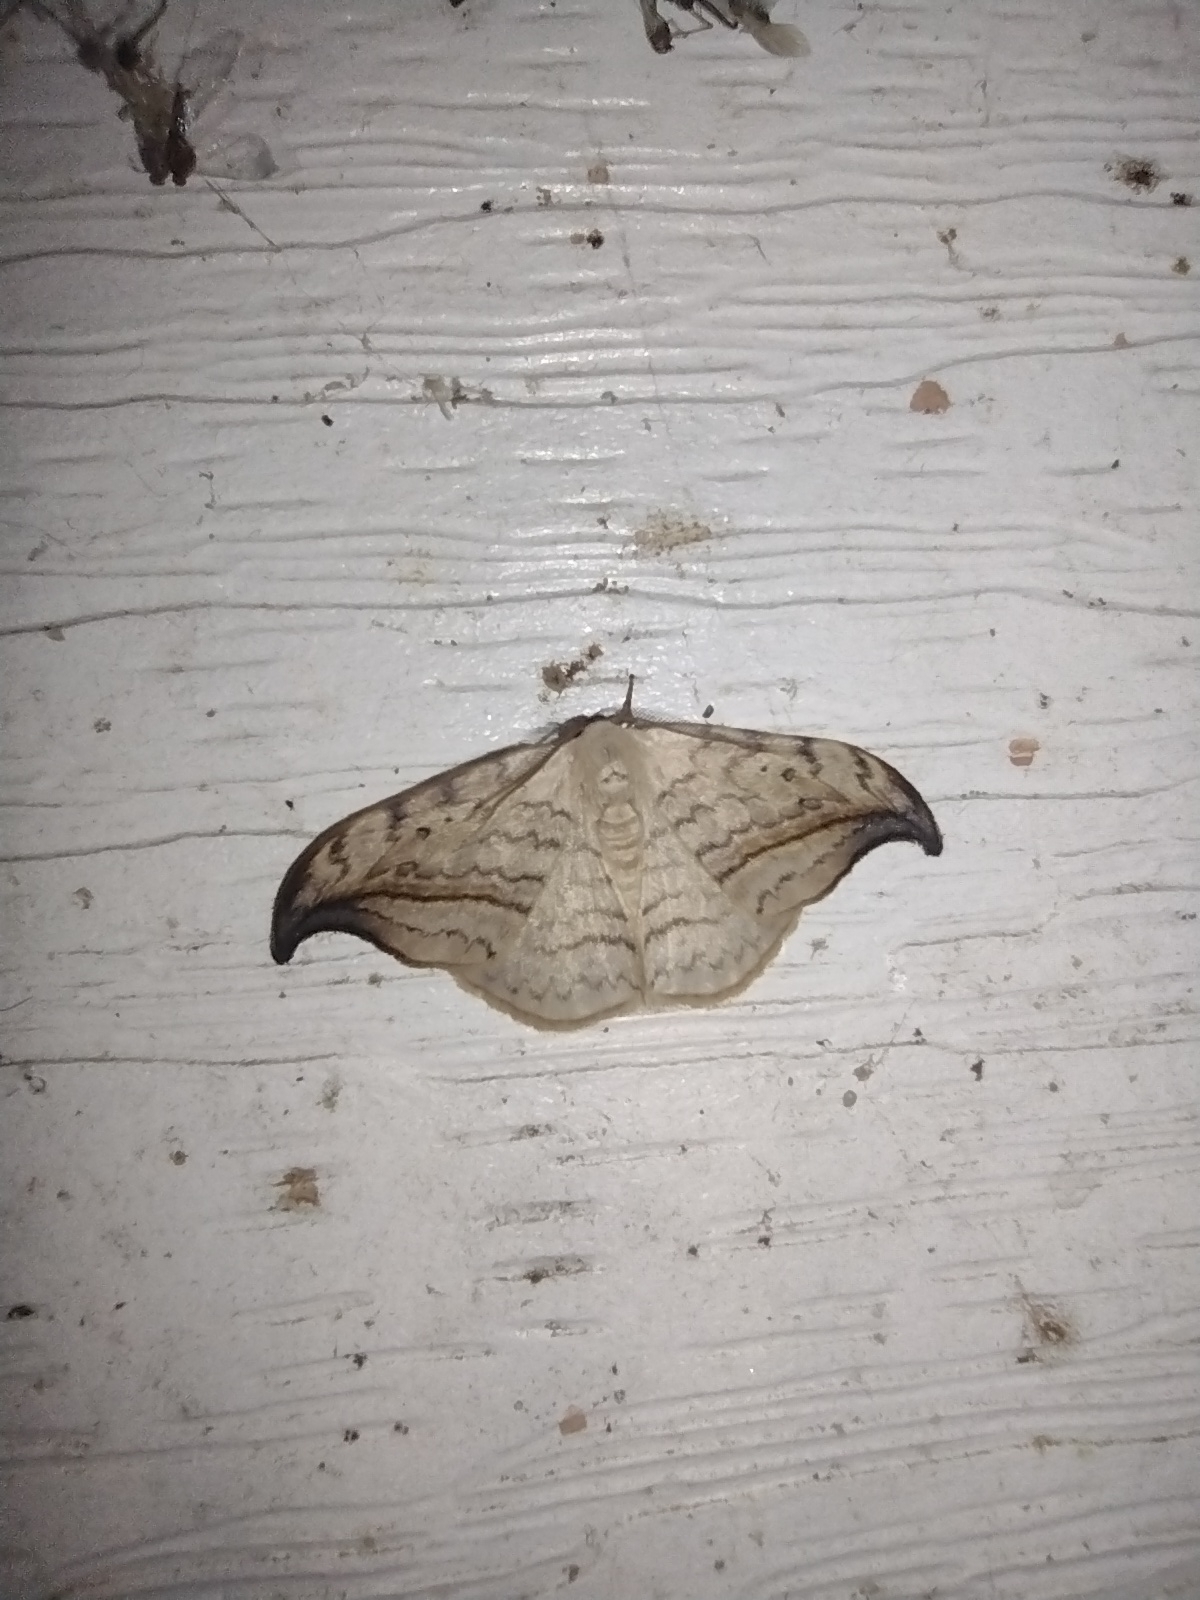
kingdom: Animalia
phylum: Arthropoda
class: Insecta
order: Lepidoptera
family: Drepanidae
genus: Drepana
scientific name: Drepana arcuata
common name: Arched hooktip moth
